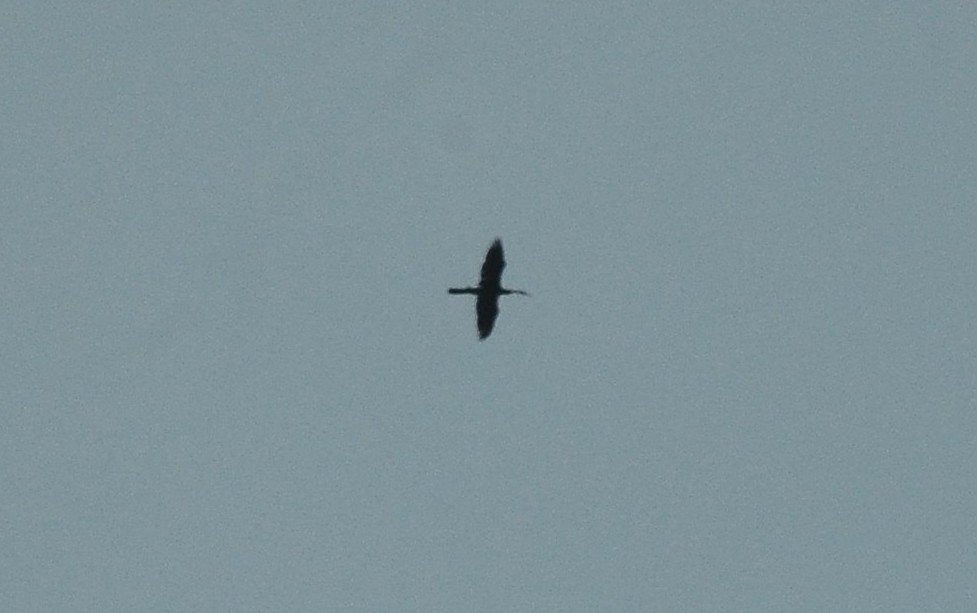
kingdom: Animalia
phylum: Chordata
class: Aves
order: Suliformes
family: Anhingidae
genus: Anhinga
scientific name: Anhinga melanogaster
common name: Oriental darter
